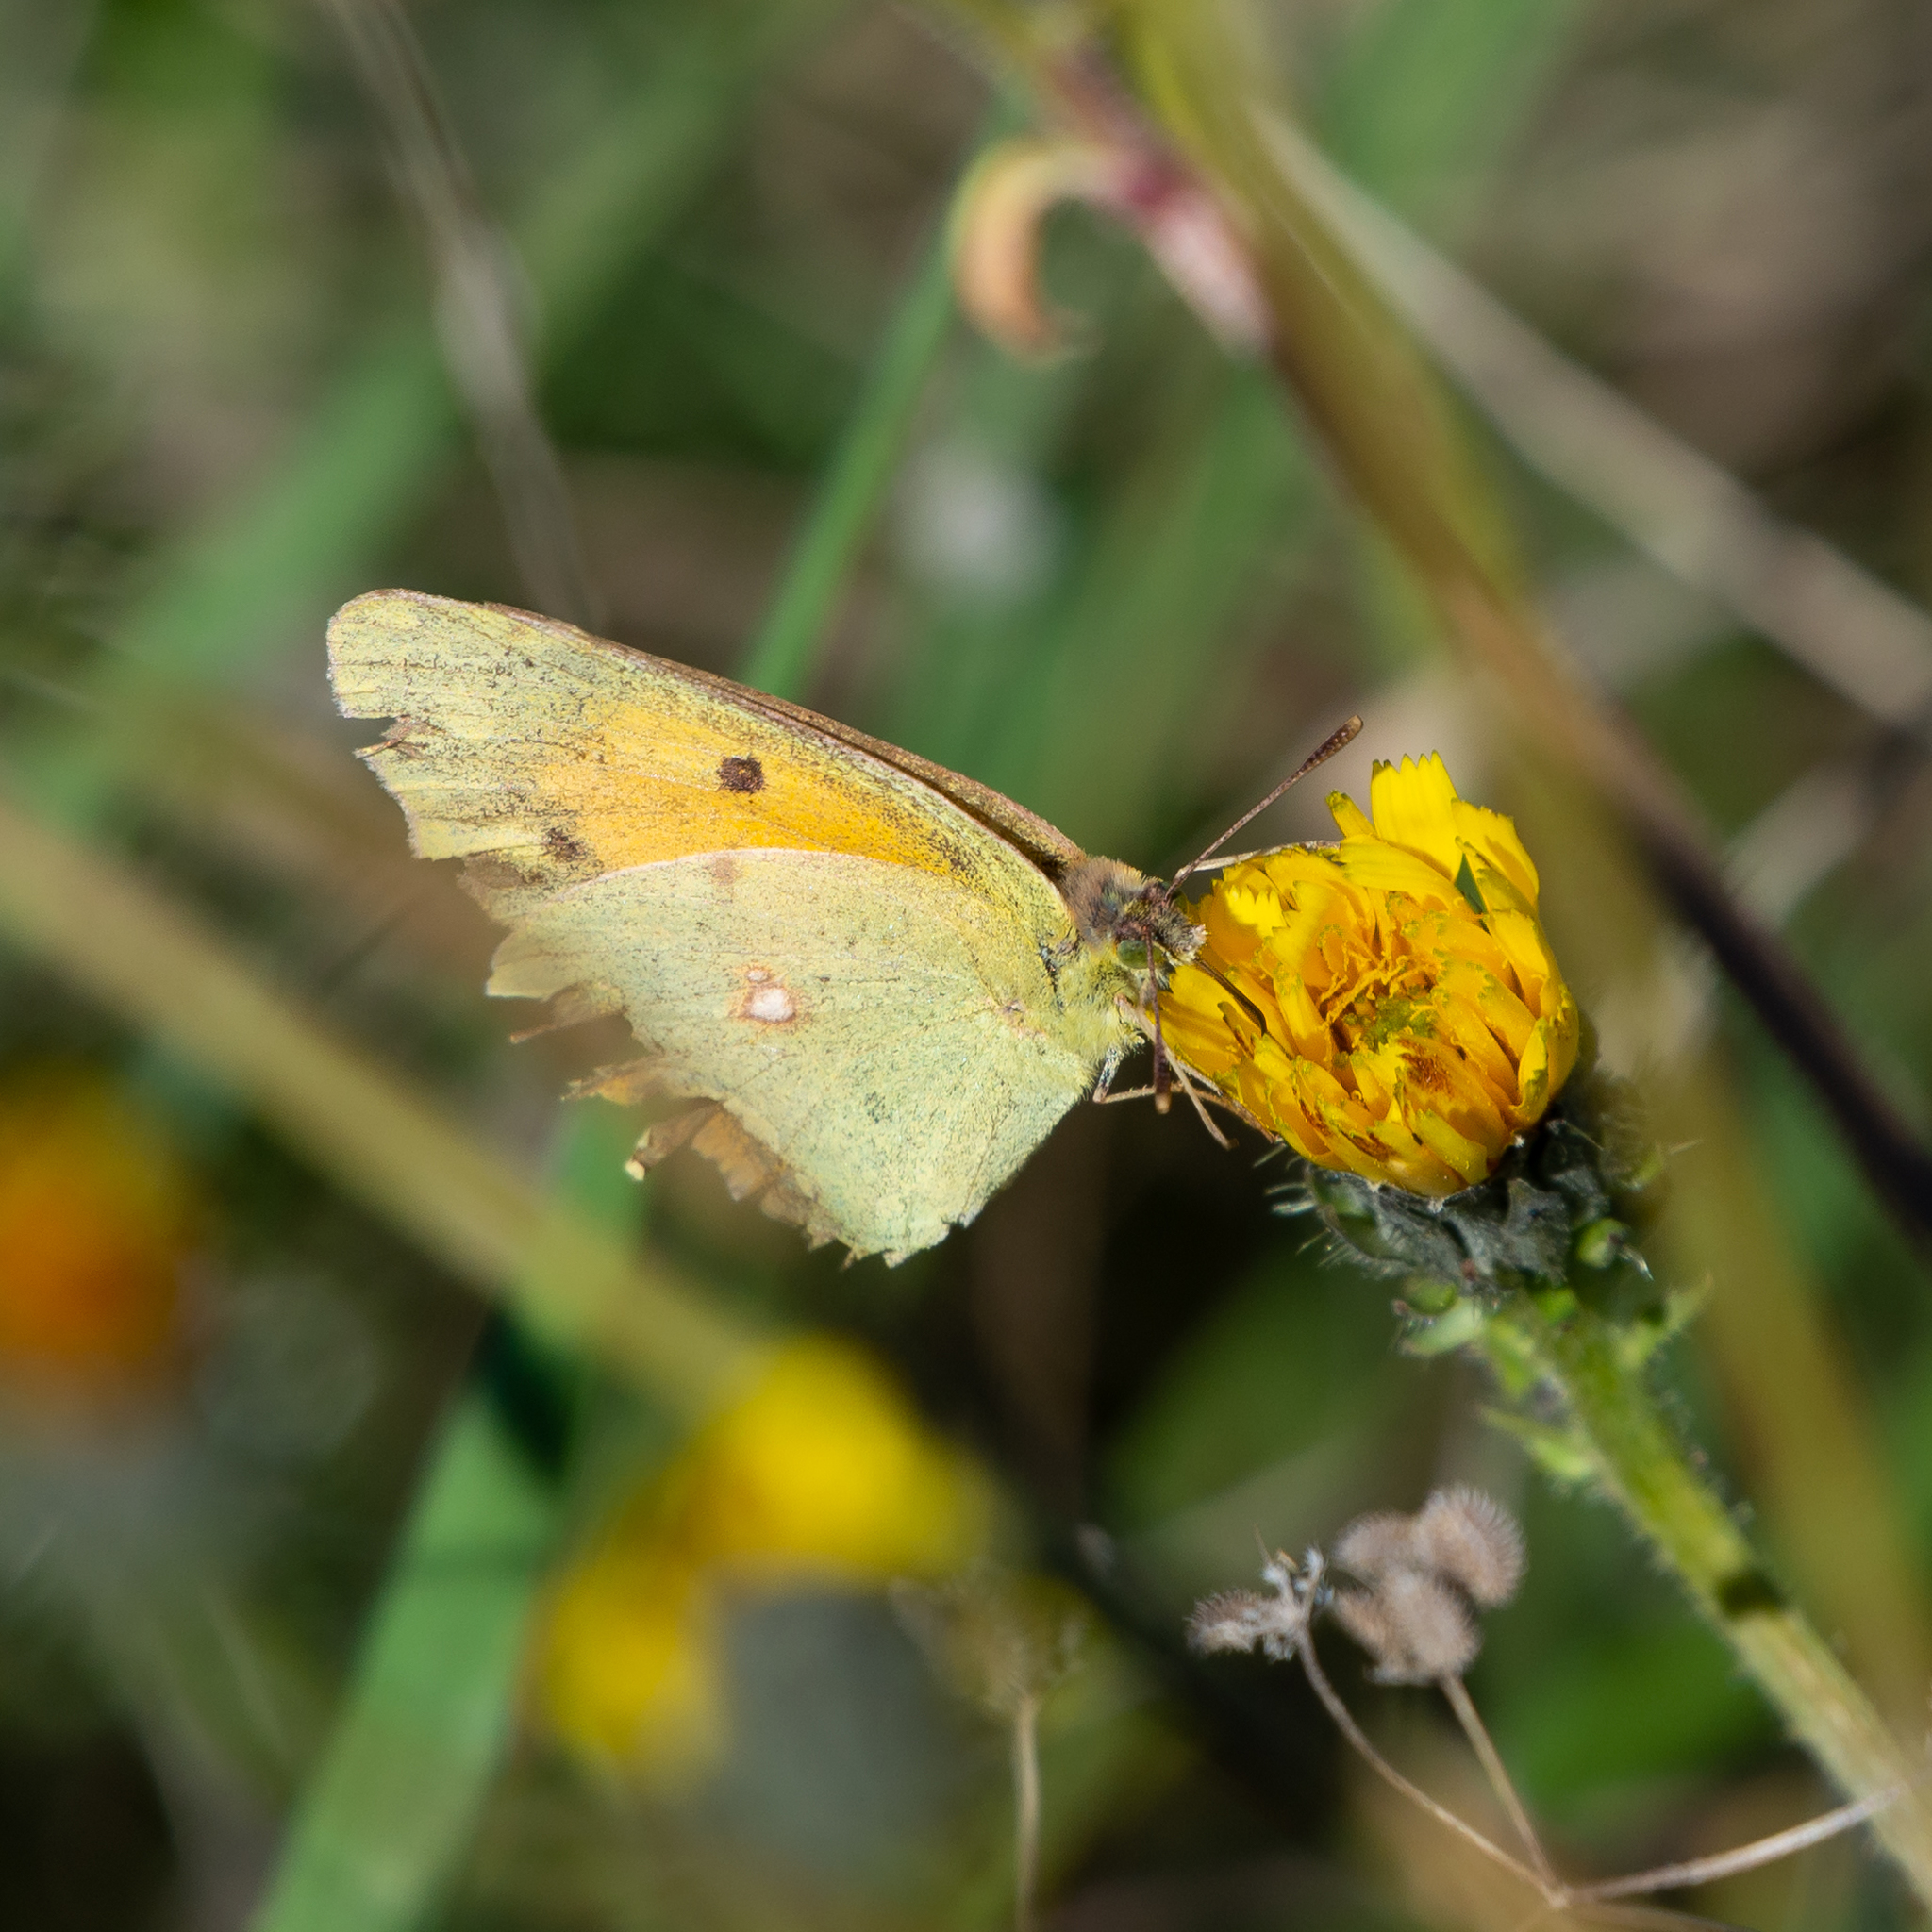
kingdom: Animalia
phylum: Arthropoda
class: Insecta
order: Lepidoptera
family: Pieridae
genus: Colias
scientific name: Colias croceus
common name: Clouded yellow
